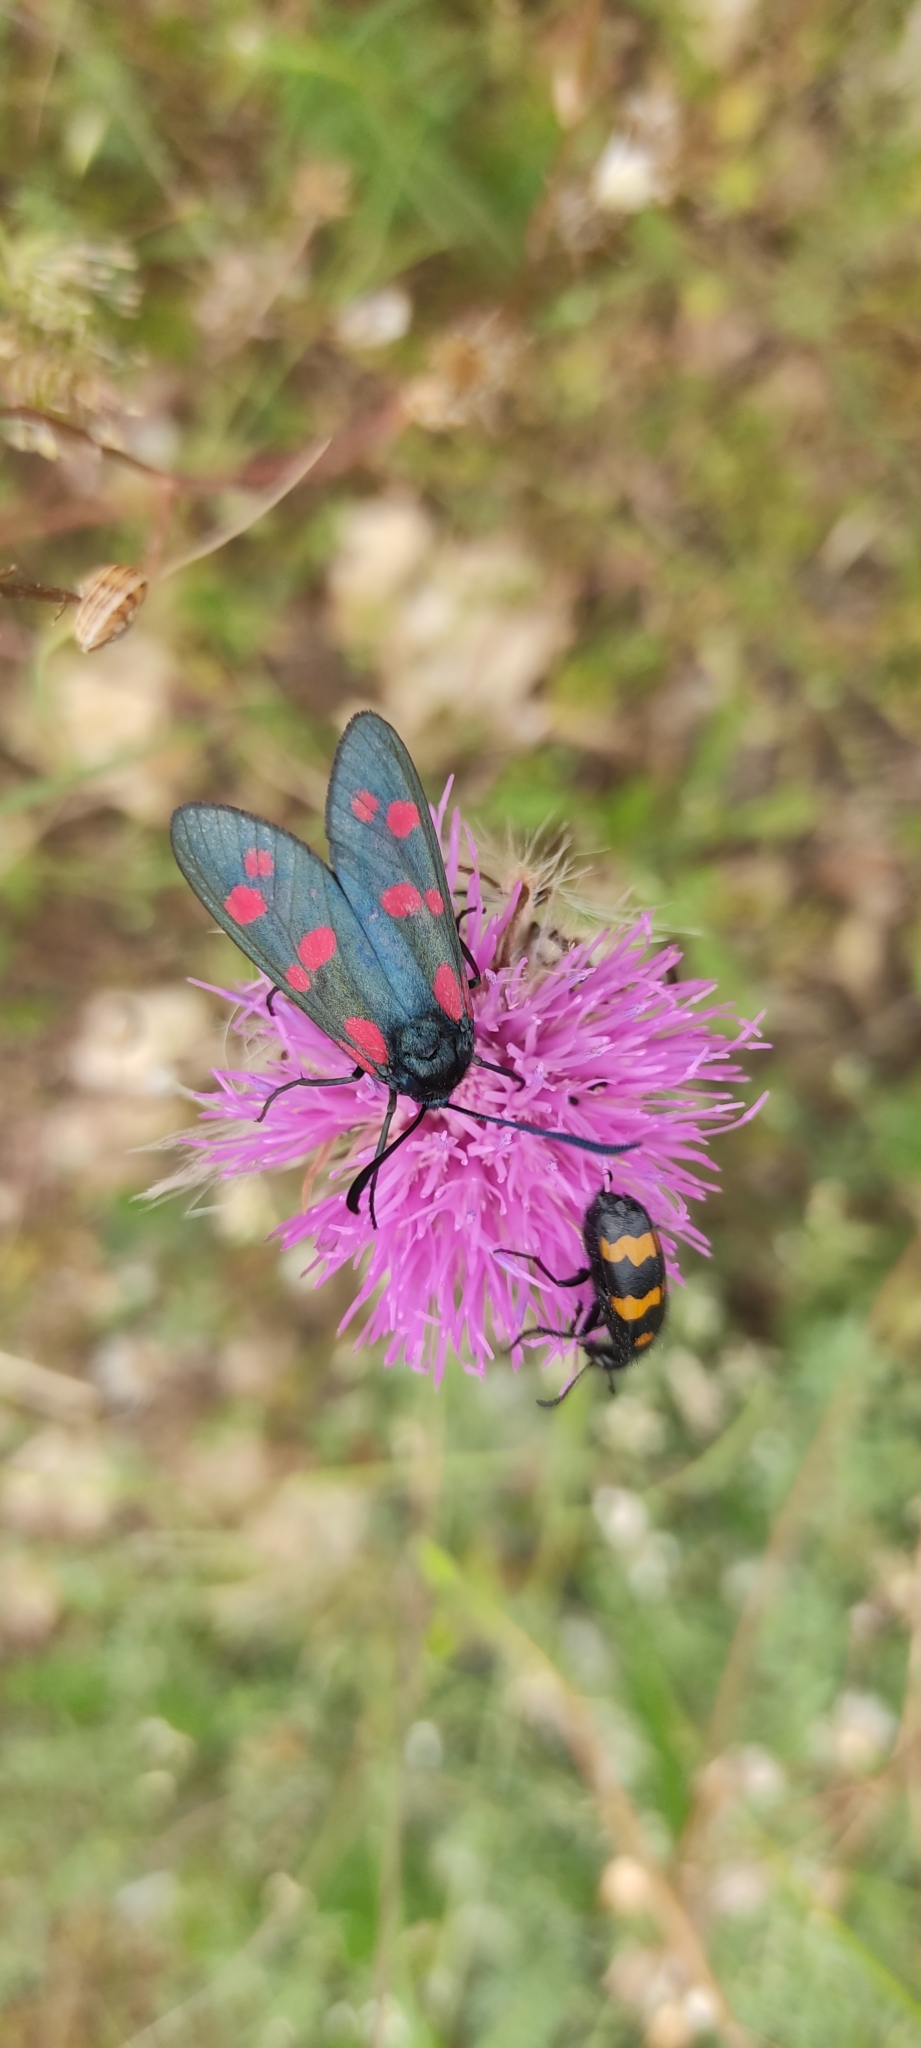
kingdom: Animalia
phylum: Arthropoda
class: Insecta
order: Lepidoptera
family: Zygaenidae
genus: Zygaena
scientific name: Zygaena filipendulae
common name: Six-spot burnet
